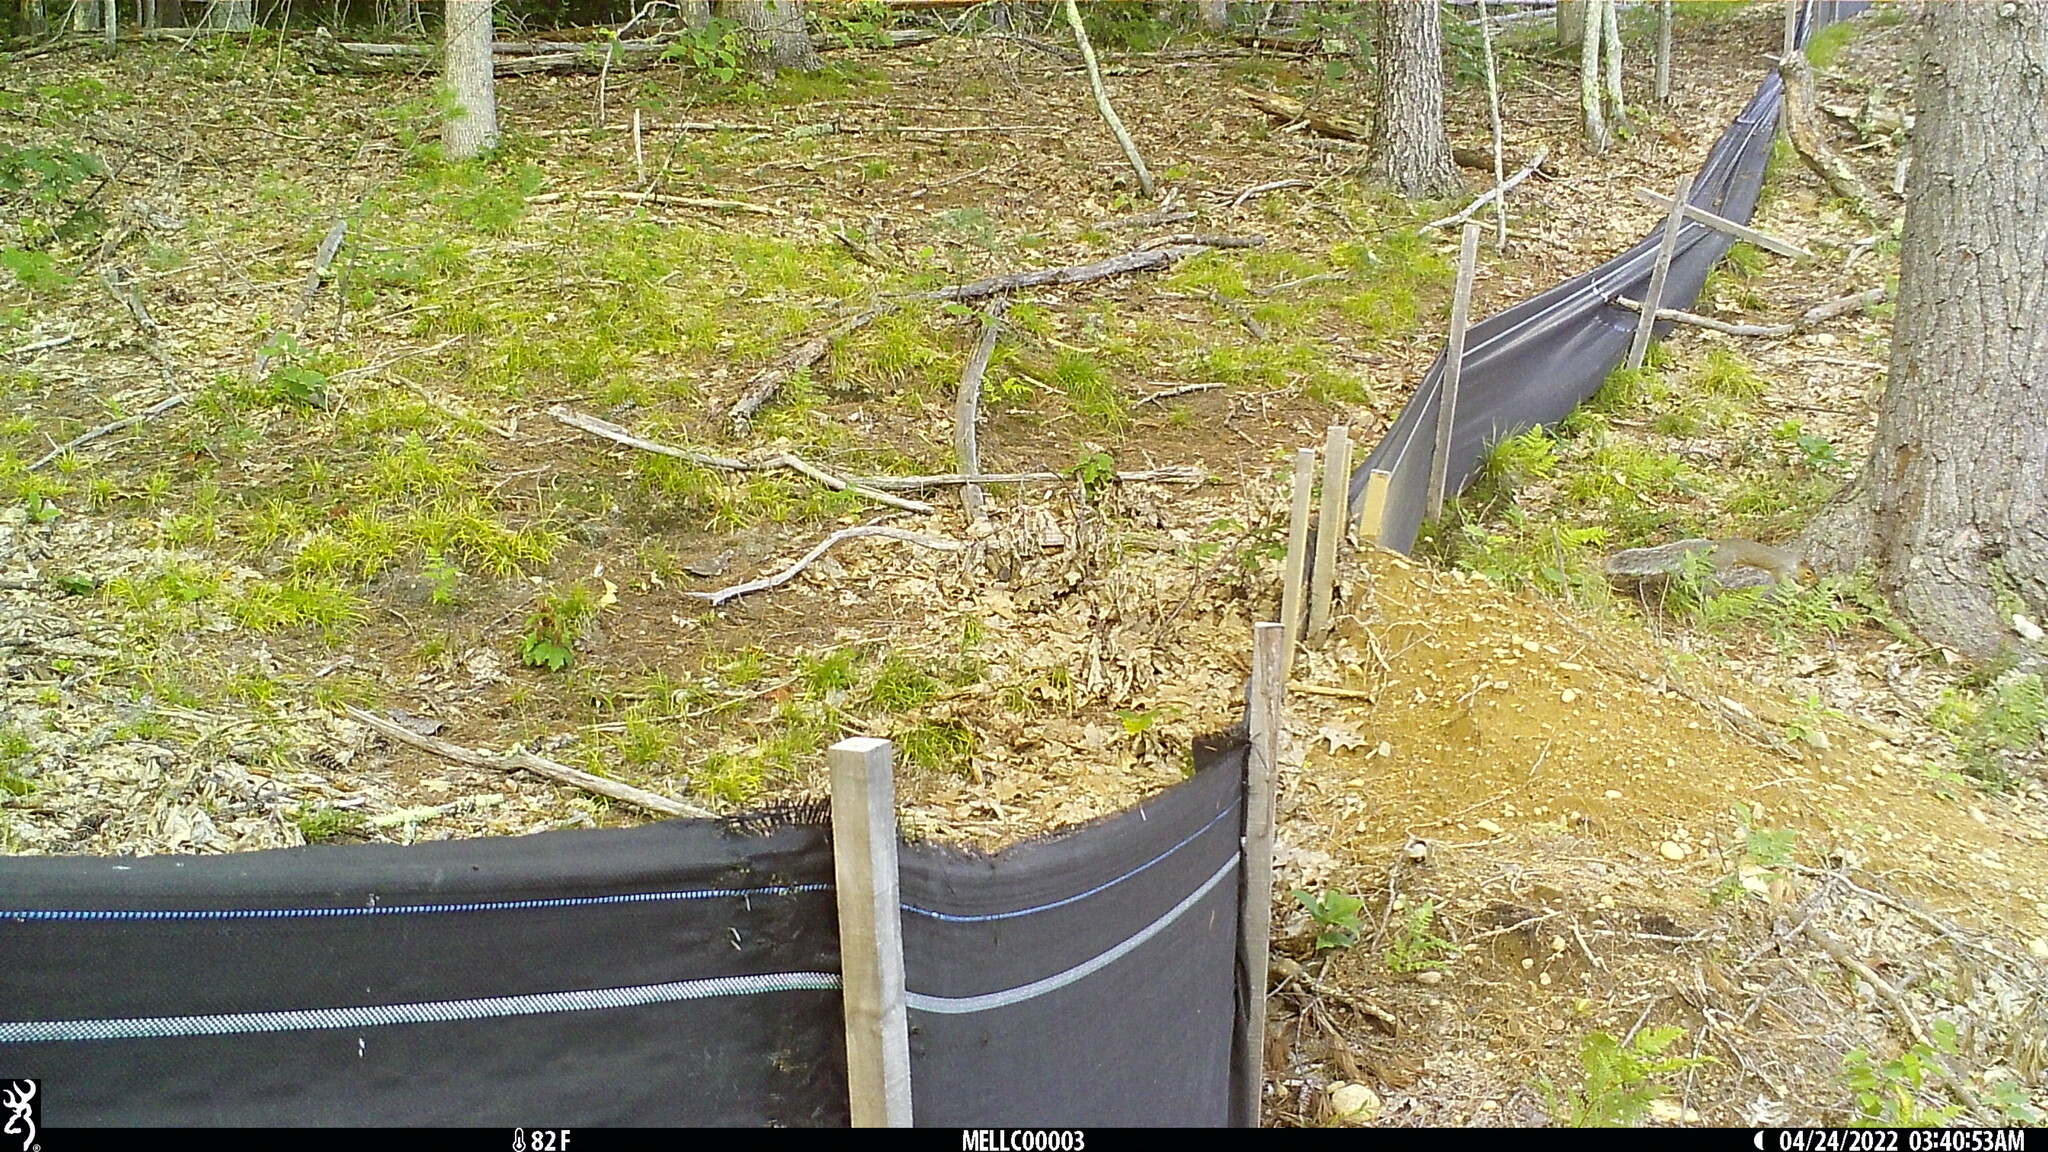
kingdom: Animalia
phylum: Chordata
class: Mammalia
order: Rodentia
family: Sciuridae
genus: Sciurus
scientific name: Sciurus carolinensis
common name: Eastern gray squirrel
